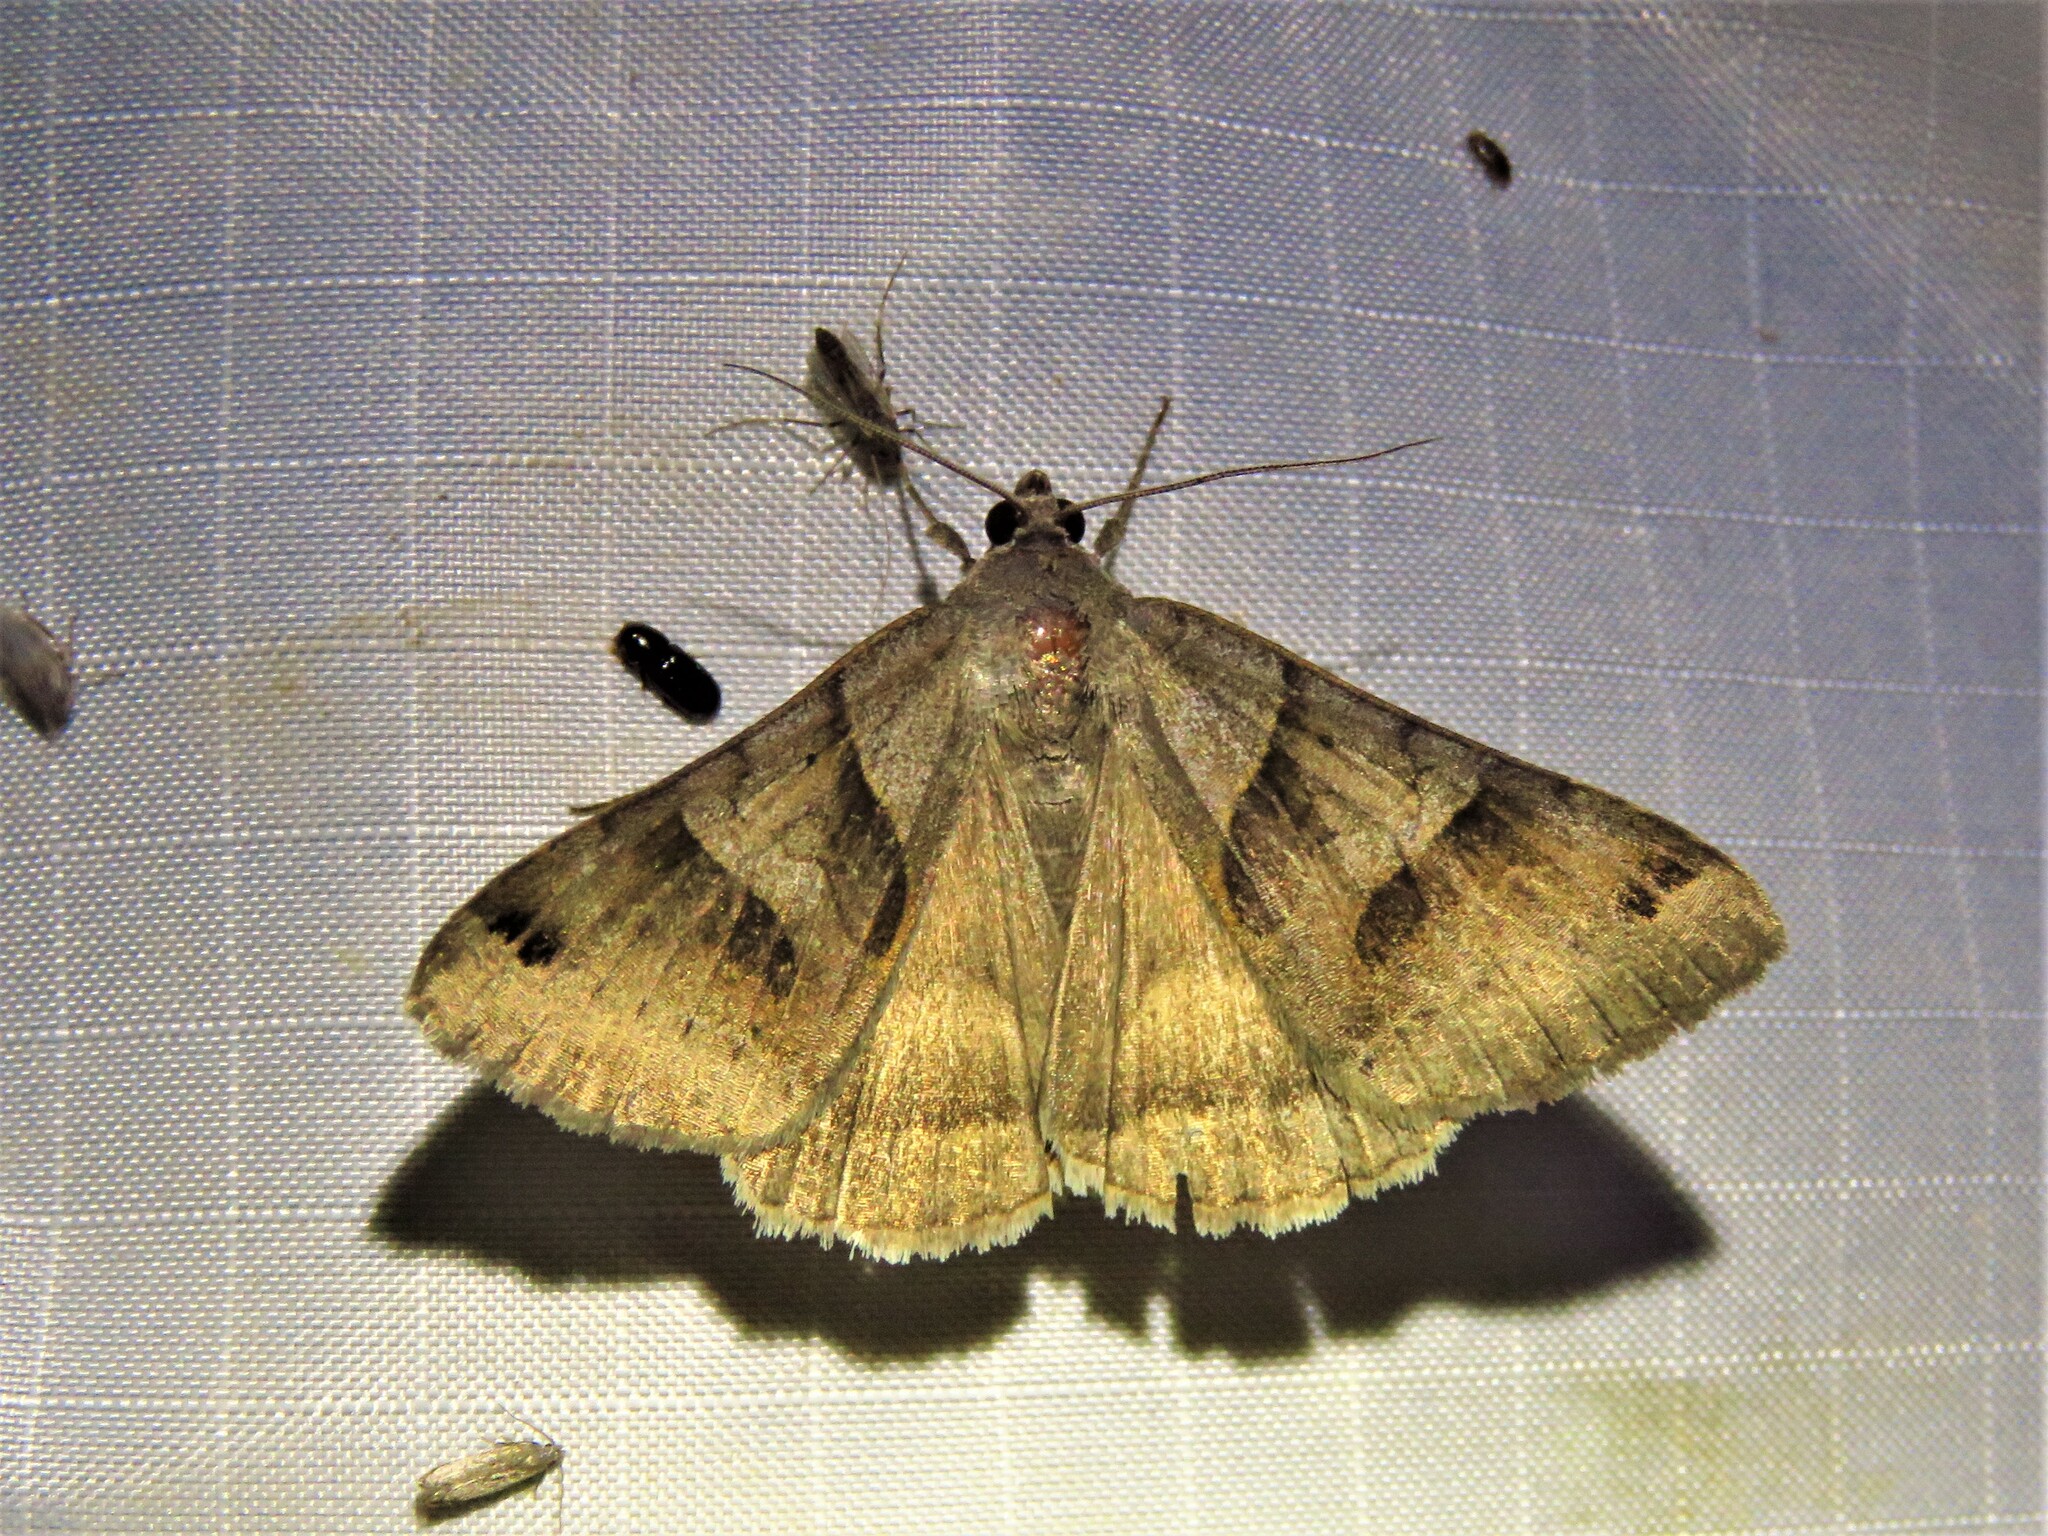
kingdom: Animalia
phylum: Arthropoda
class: Insecta
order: Lepidoptera
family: Erebidae
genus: Caenurgina
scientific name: Caenurgina erechtea
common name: Forage looper moth
